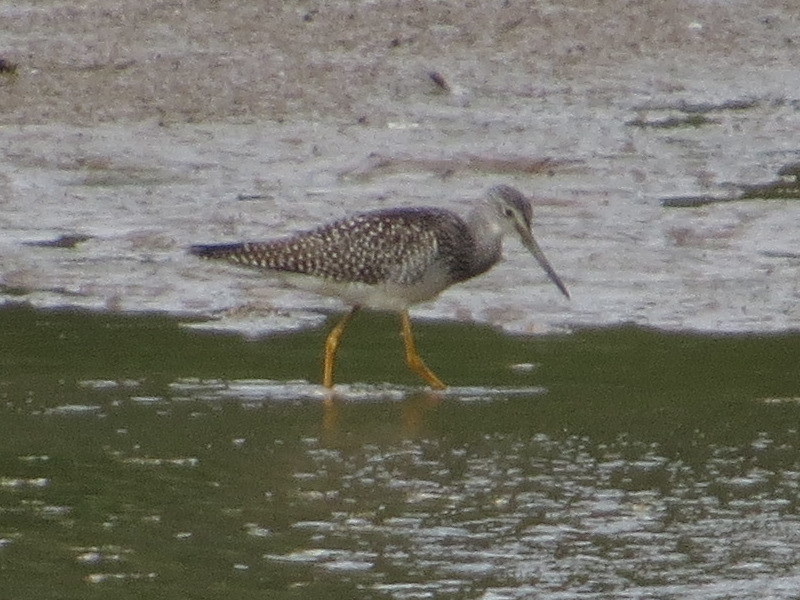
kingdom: Animalia
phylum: Chordata
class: Aves
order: Charadriiformes
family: Scolopacidae
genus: Tringa
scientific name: Tringa melanoleuca
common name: Greater yellowlegs
